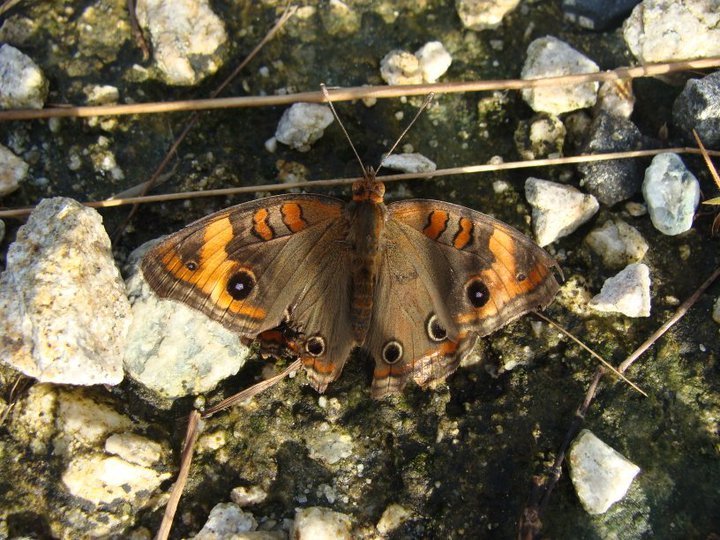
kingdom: Animalia
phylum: Arthropoda
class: Insecta
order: Lepidoptera
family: Nymphalidae
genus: Junonia
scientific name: Junonia lavinia
